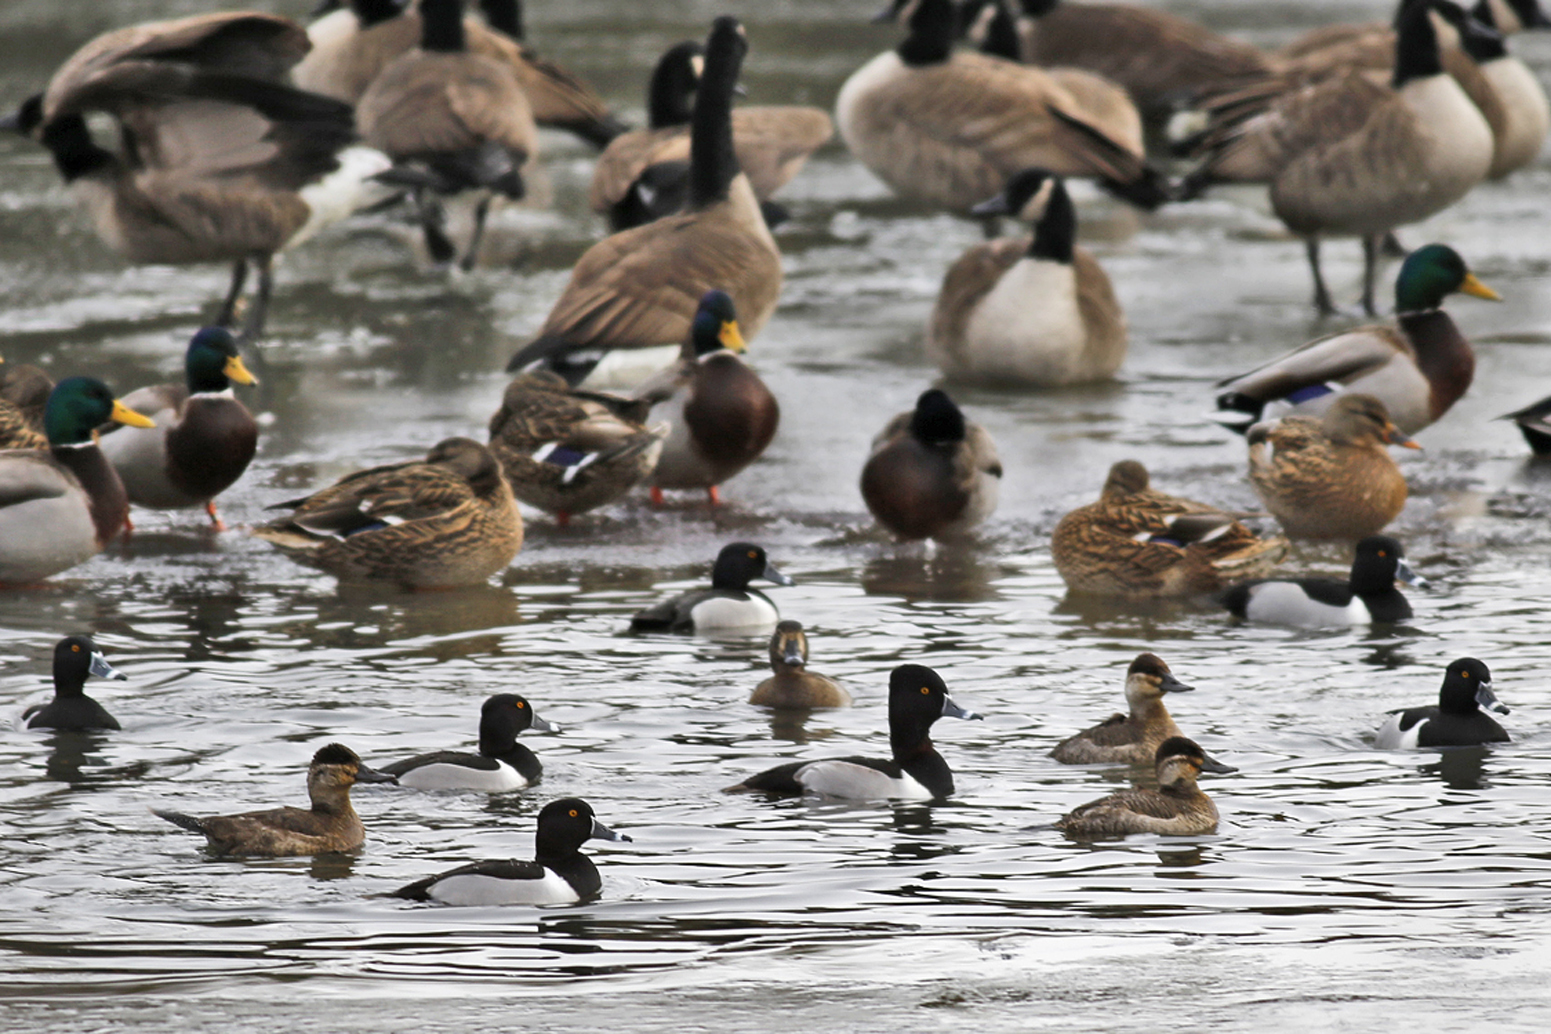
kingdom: Animalia
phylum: Chordata
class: Aves
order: Anseriformes
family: Anatidae
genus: Oxyura
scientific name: Oxyura jamaicensis
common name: Ruddy duck
